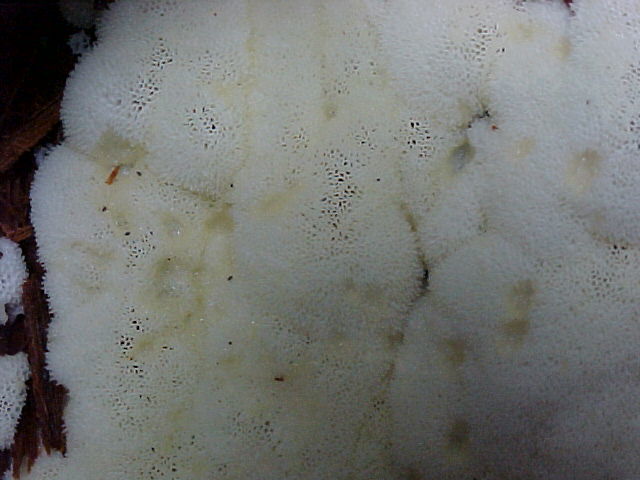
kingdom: Protozoa
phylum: Mycetozoa
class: Protosteliomycetes
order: Ceratiomyxales
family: Ceratiomyxaceae
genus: Ceratiomyxa
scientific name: Ceratiomyxa fruticulosa
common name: Honeycomb coral slime mold
